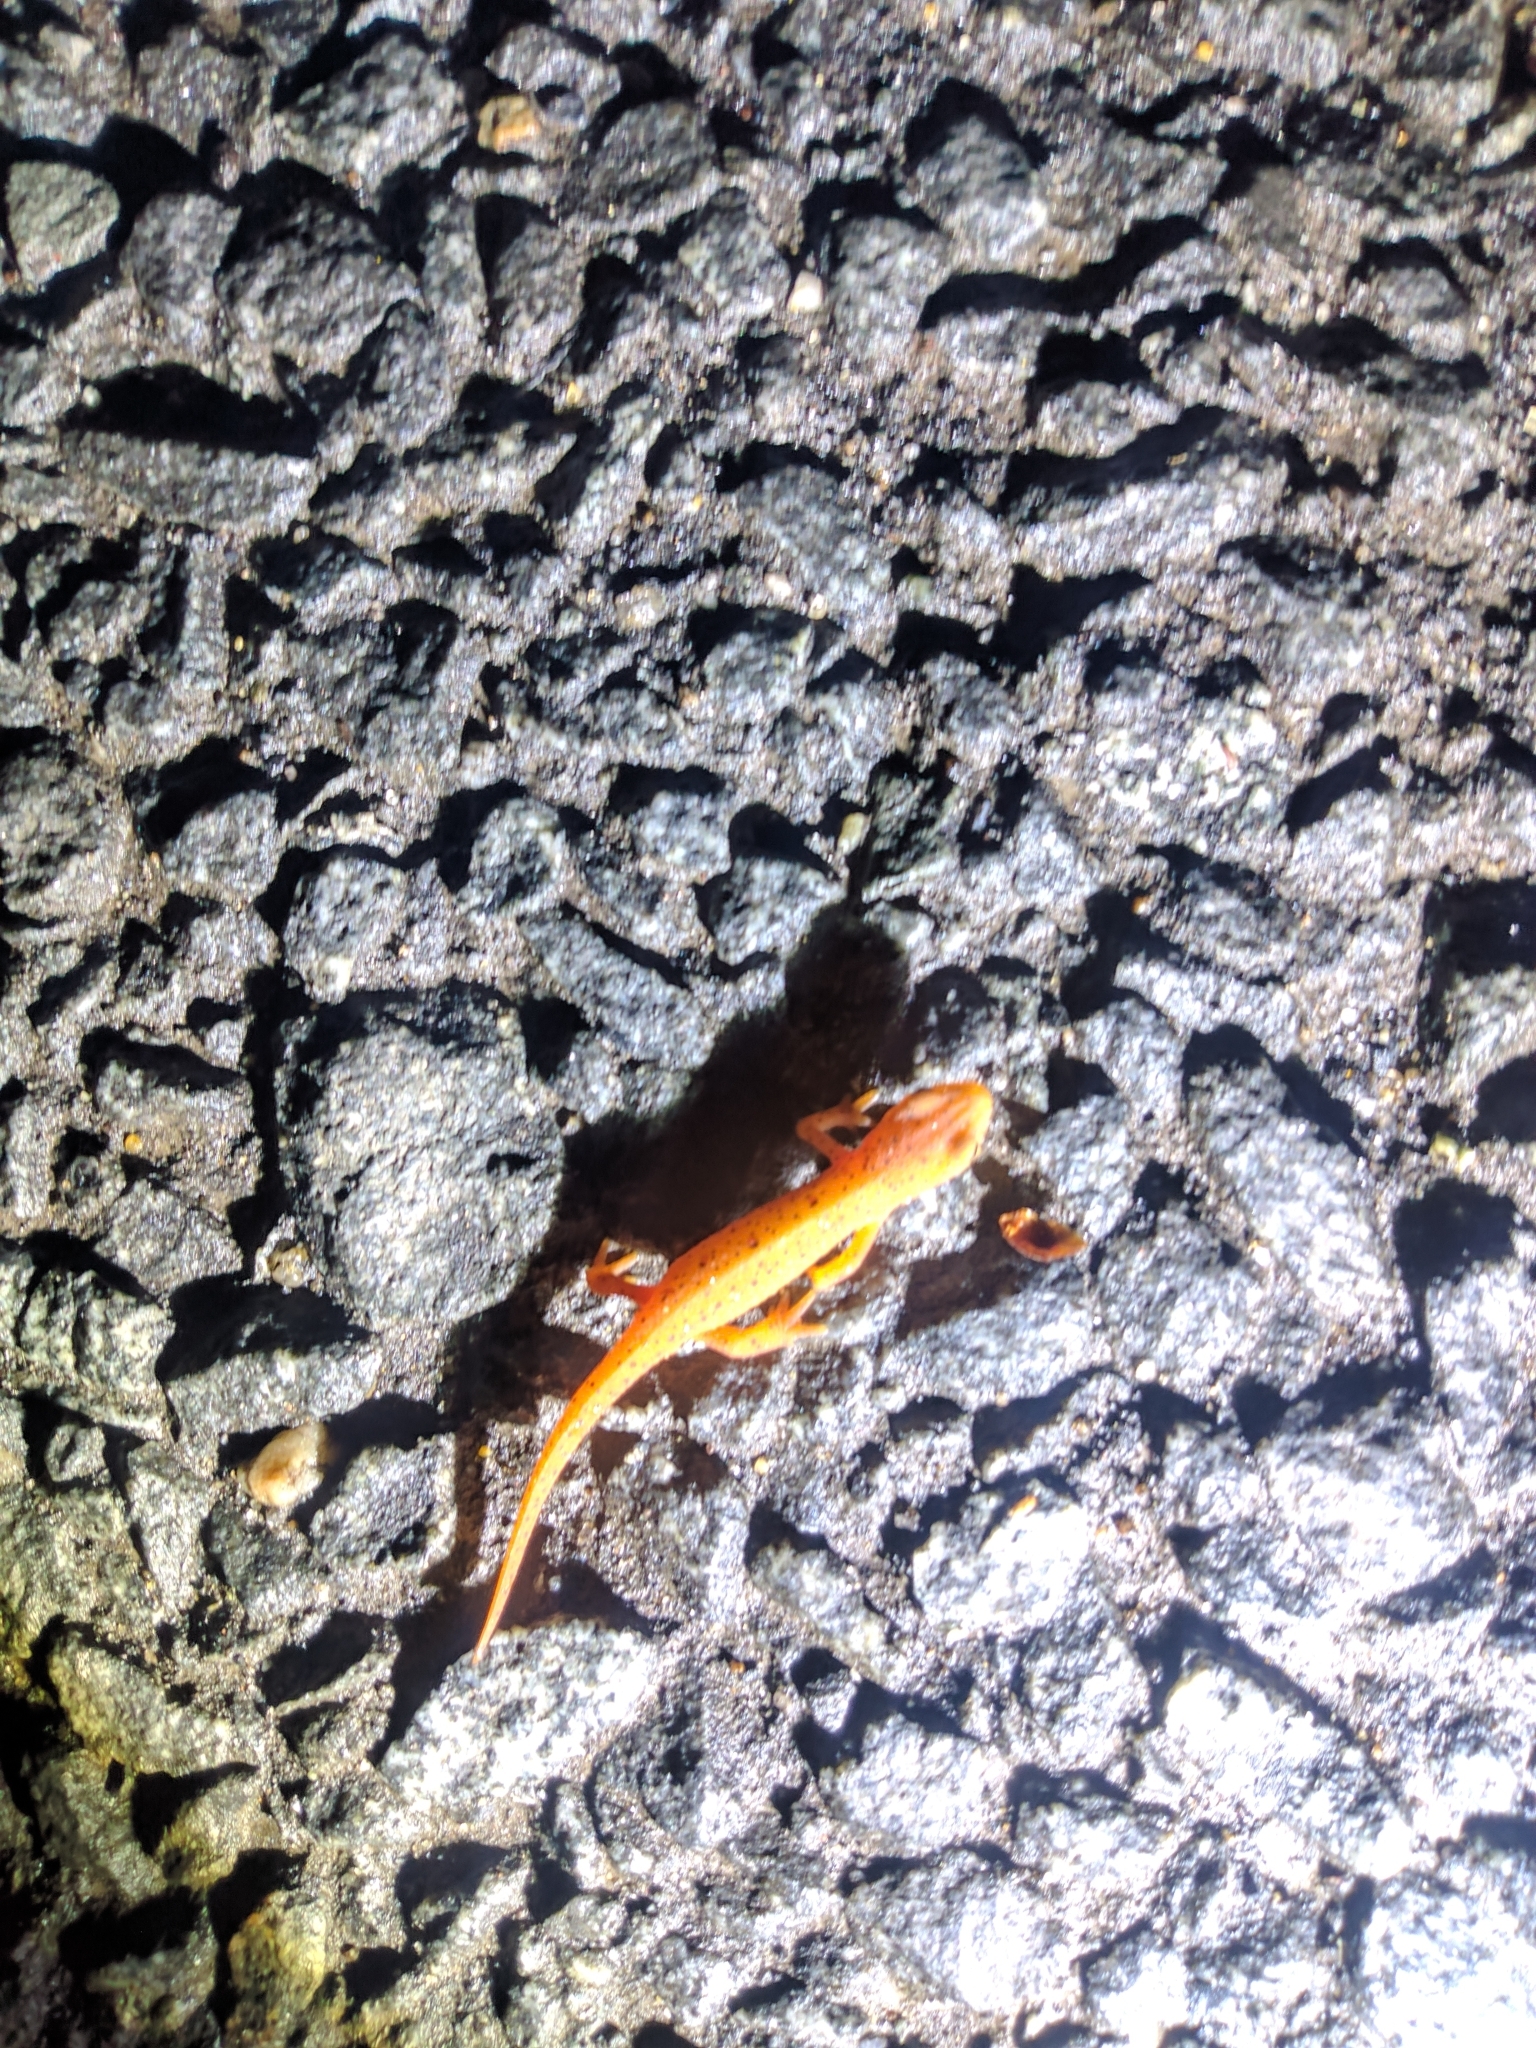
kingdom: Animalia
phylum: Chordata
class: Amphibia
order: Caudata
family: Salamandridae
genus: Notophthalmus
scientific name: Notophthalmus viridescens
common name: Eastern newt
